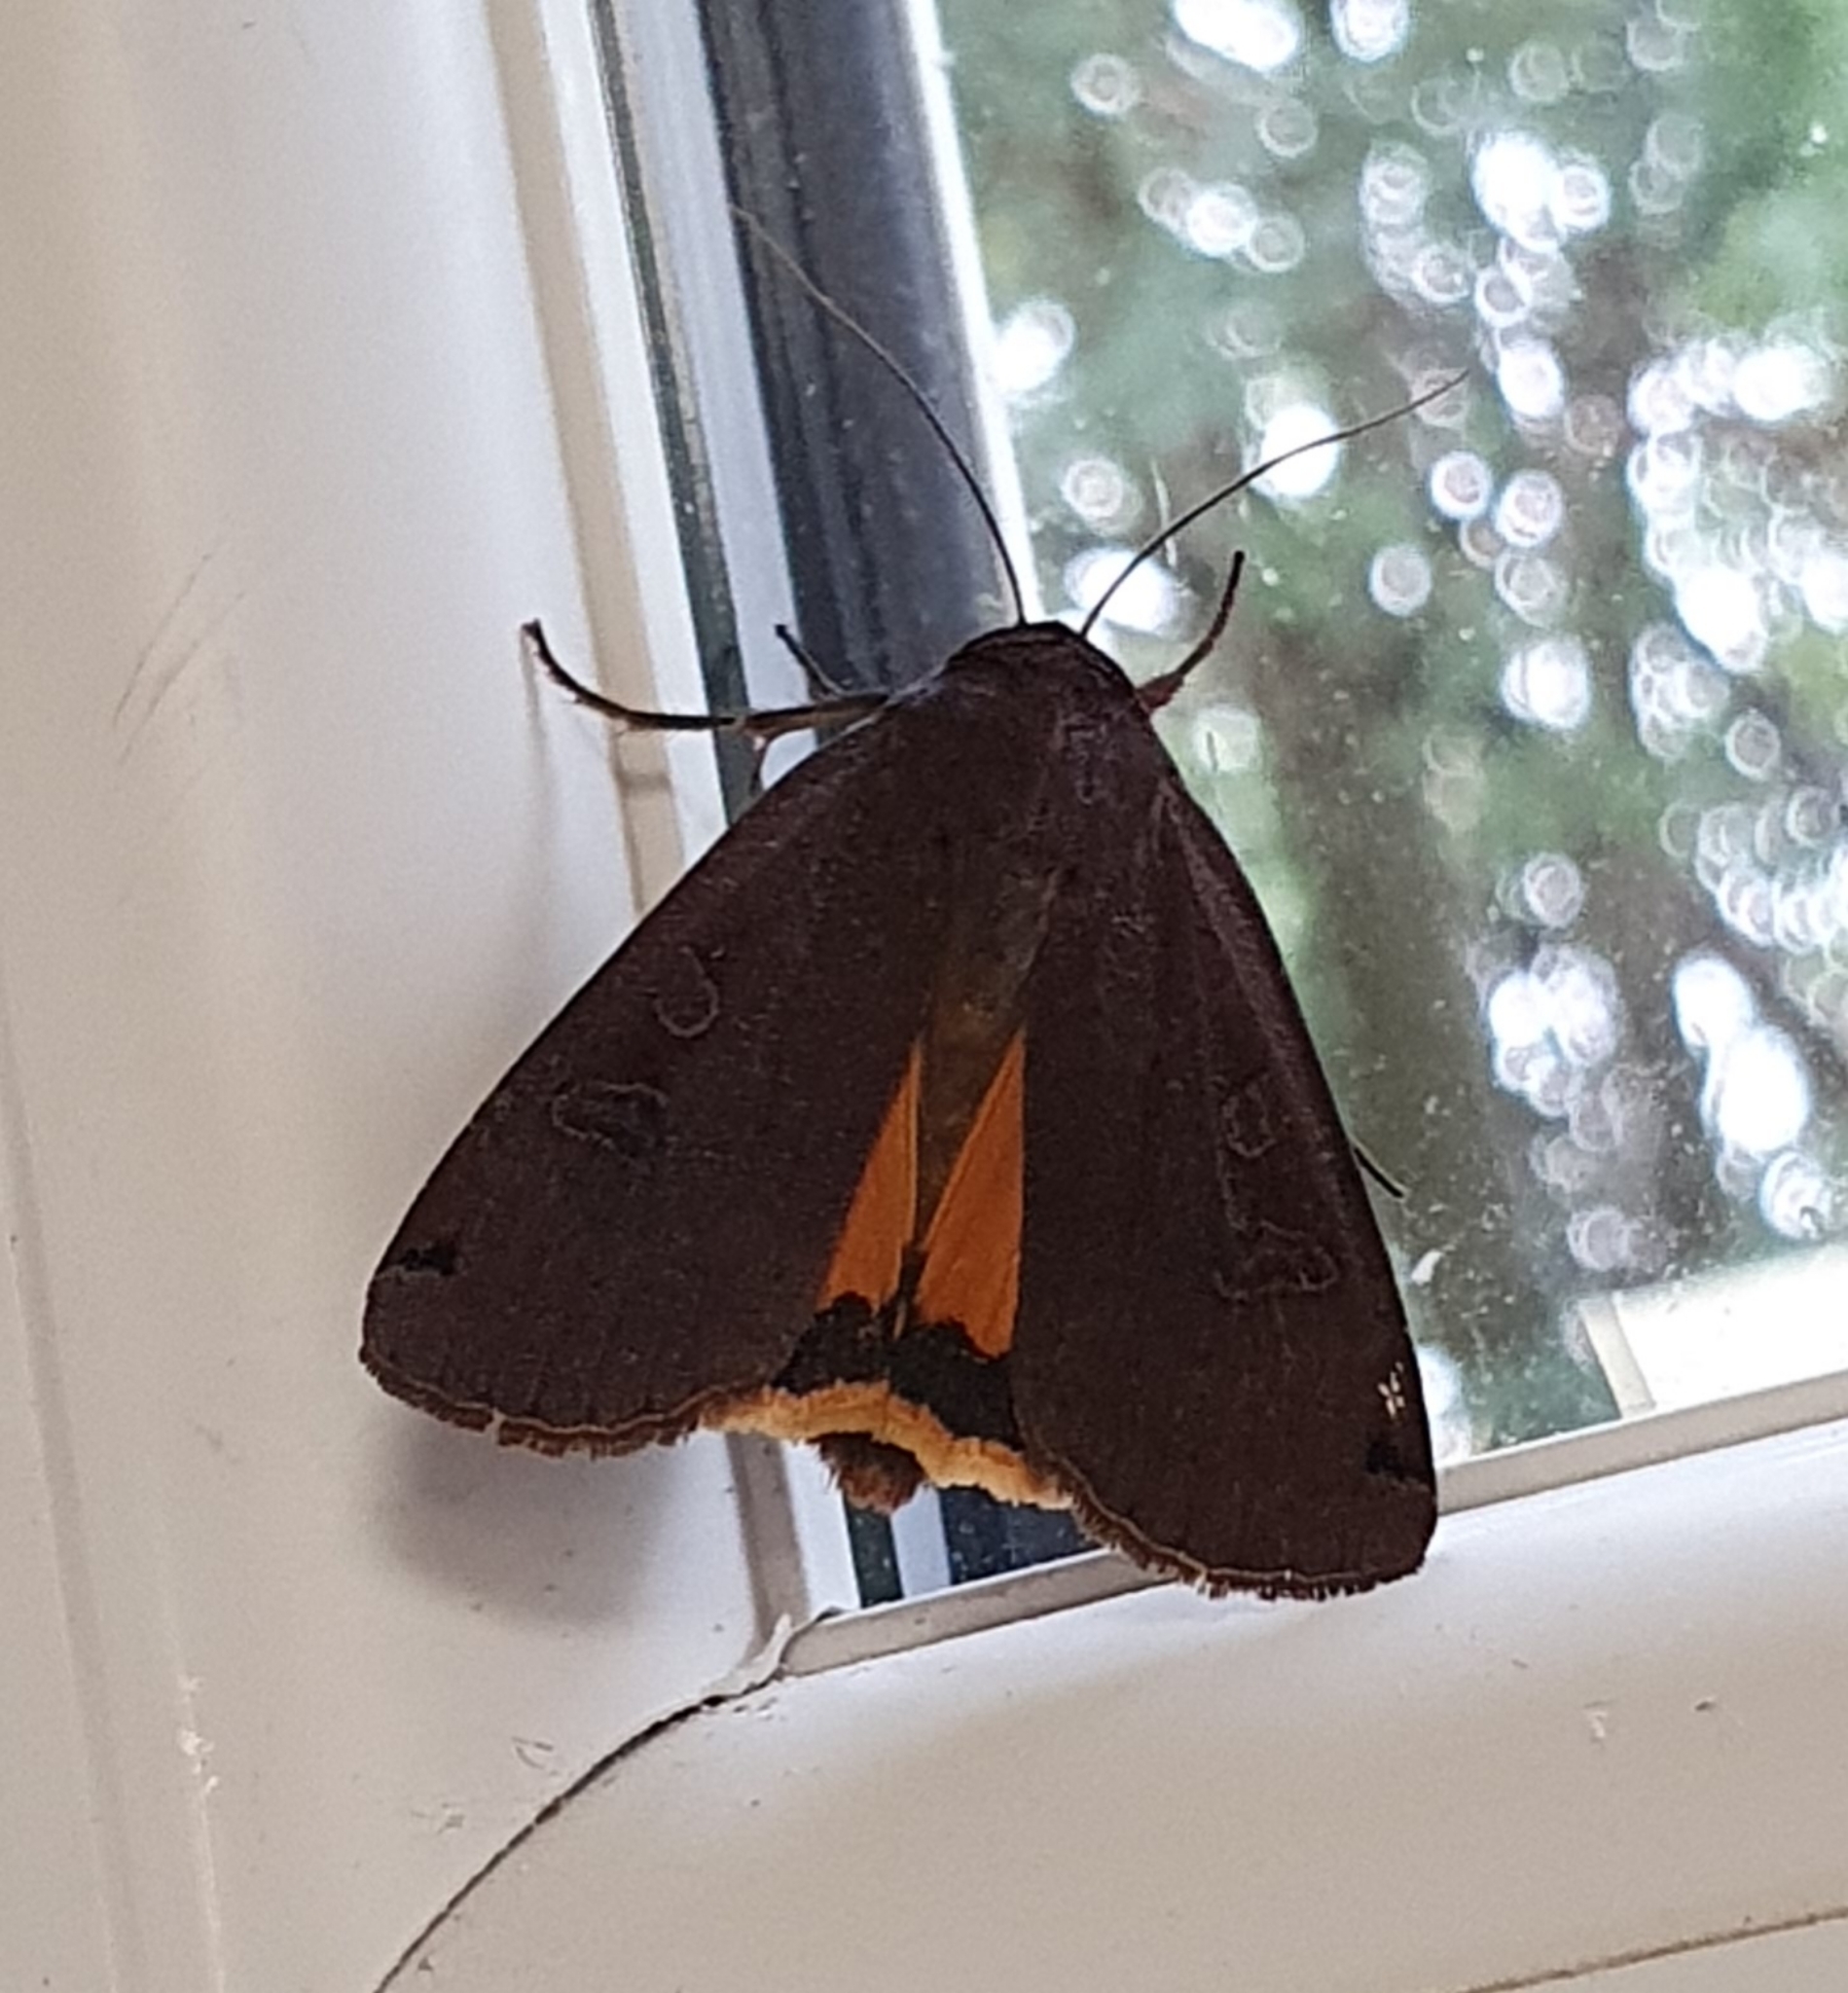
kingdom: Animalia
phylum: Arthropoda
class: Insecta
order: Lepidoptera
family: Noctuidae
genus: Noctua
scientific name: Noctua pronuba
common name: Large yellow underwing
